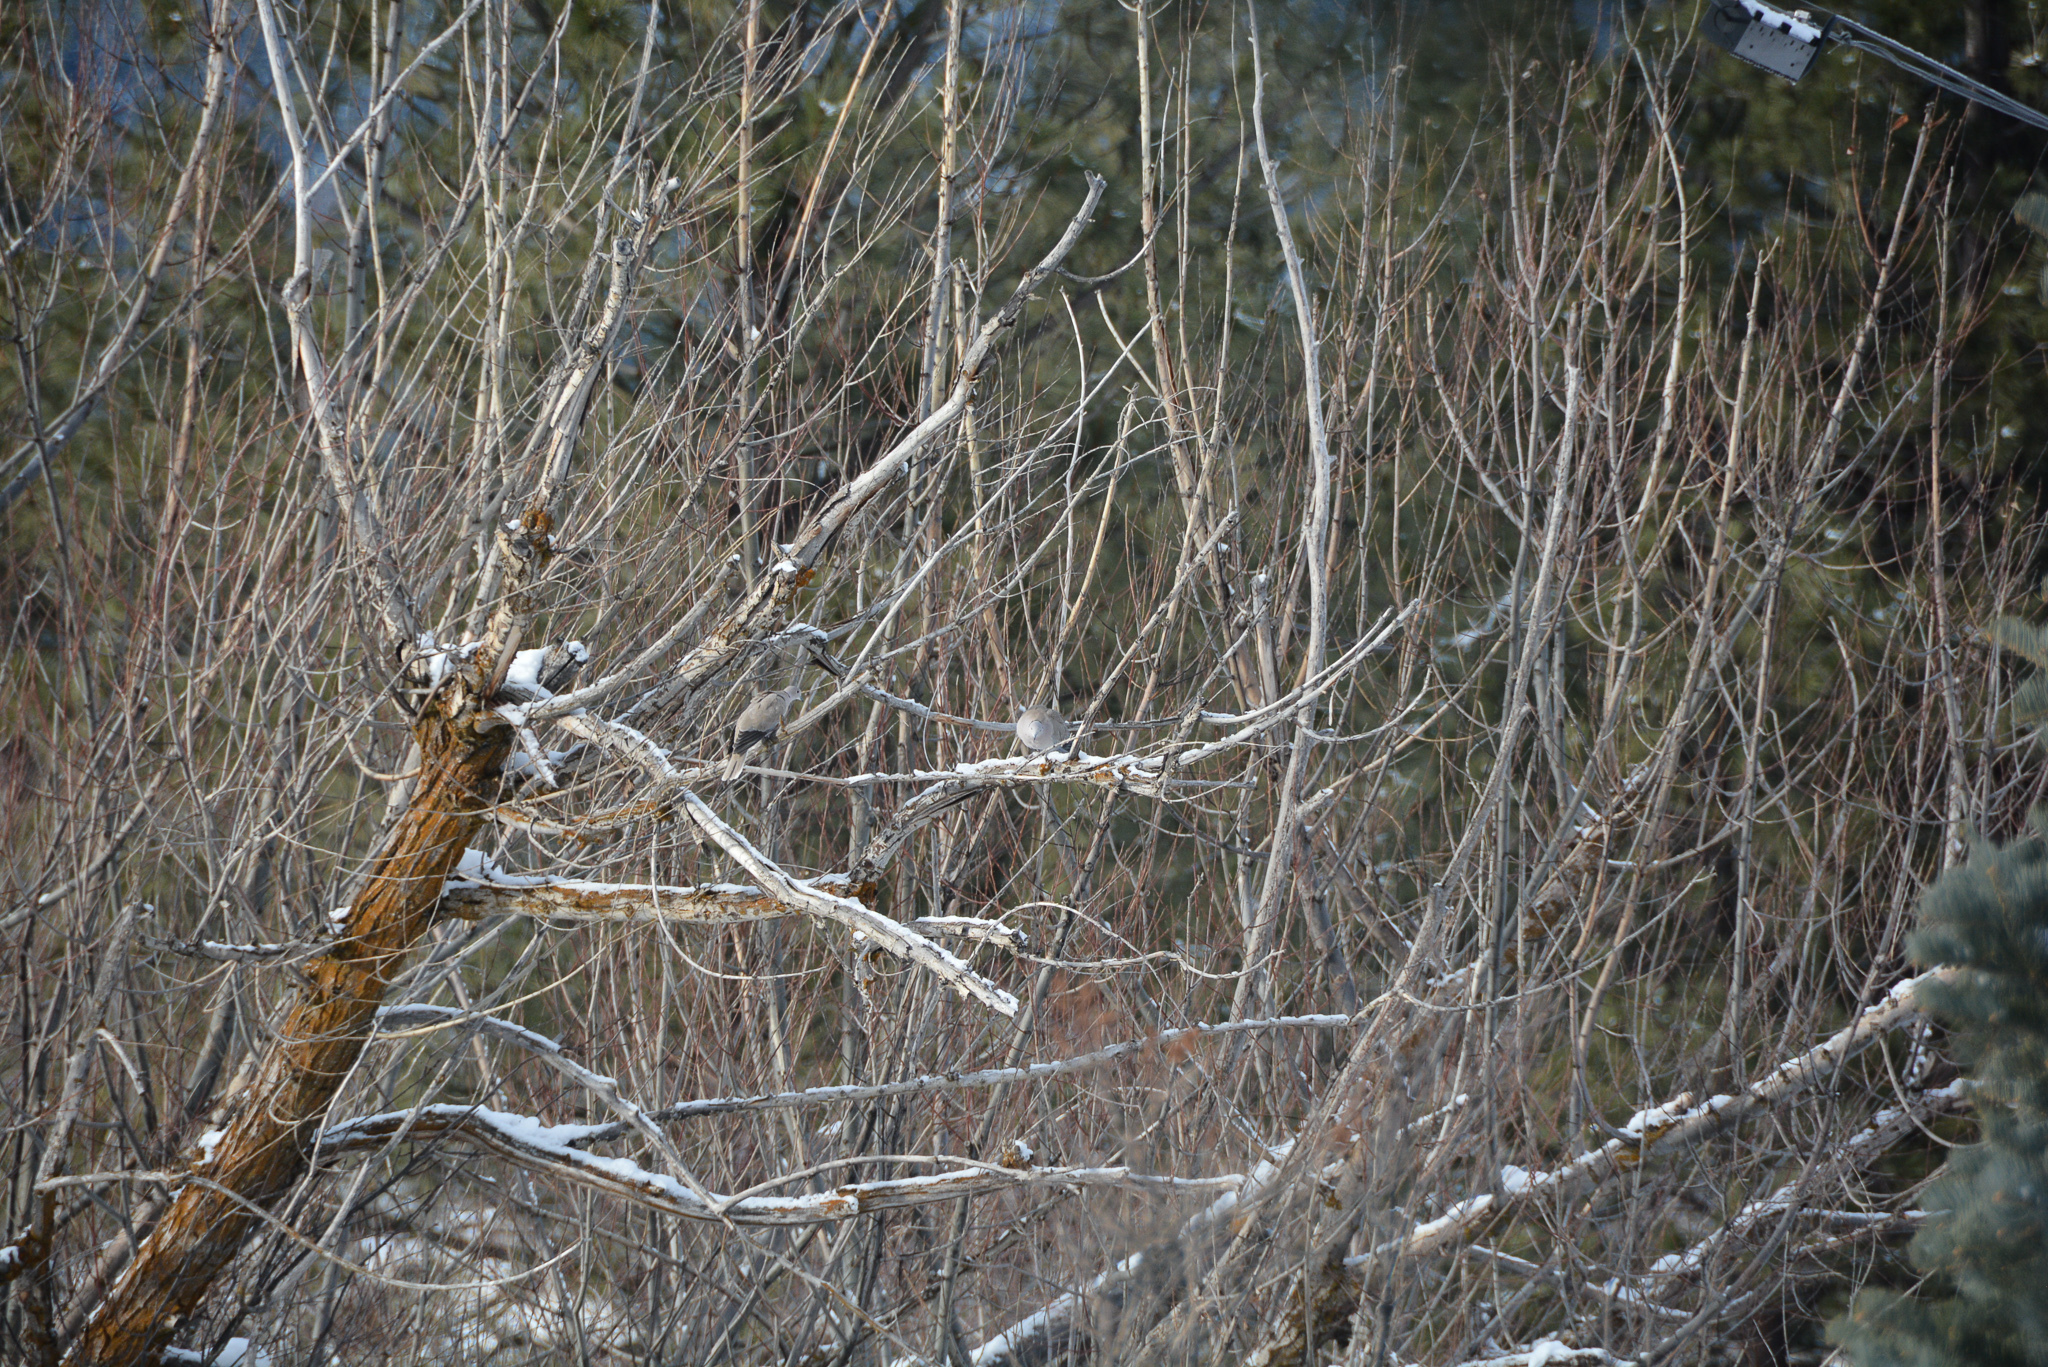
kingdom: Animalia
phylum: Chordata
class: Aves
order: Columbiformes
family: Columbidae
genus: Streptopelia
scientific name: Streptopelia decaocto
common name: Eurasian collared dove
